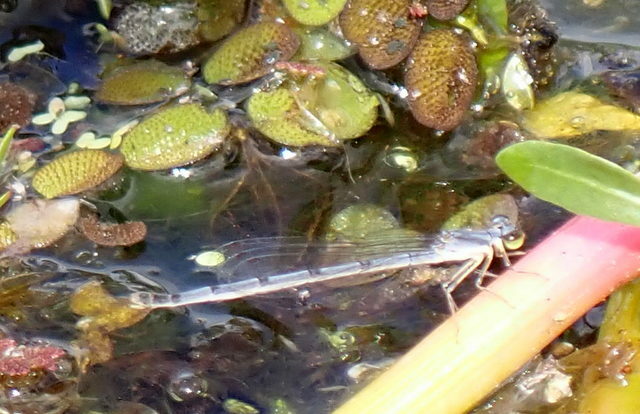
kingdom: Animalia
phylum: Arthropoda
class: Insecta
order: Odonata
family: Coenagrionidae
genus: Ischnura
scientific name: Ischnura posita
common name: Fragile forktail
